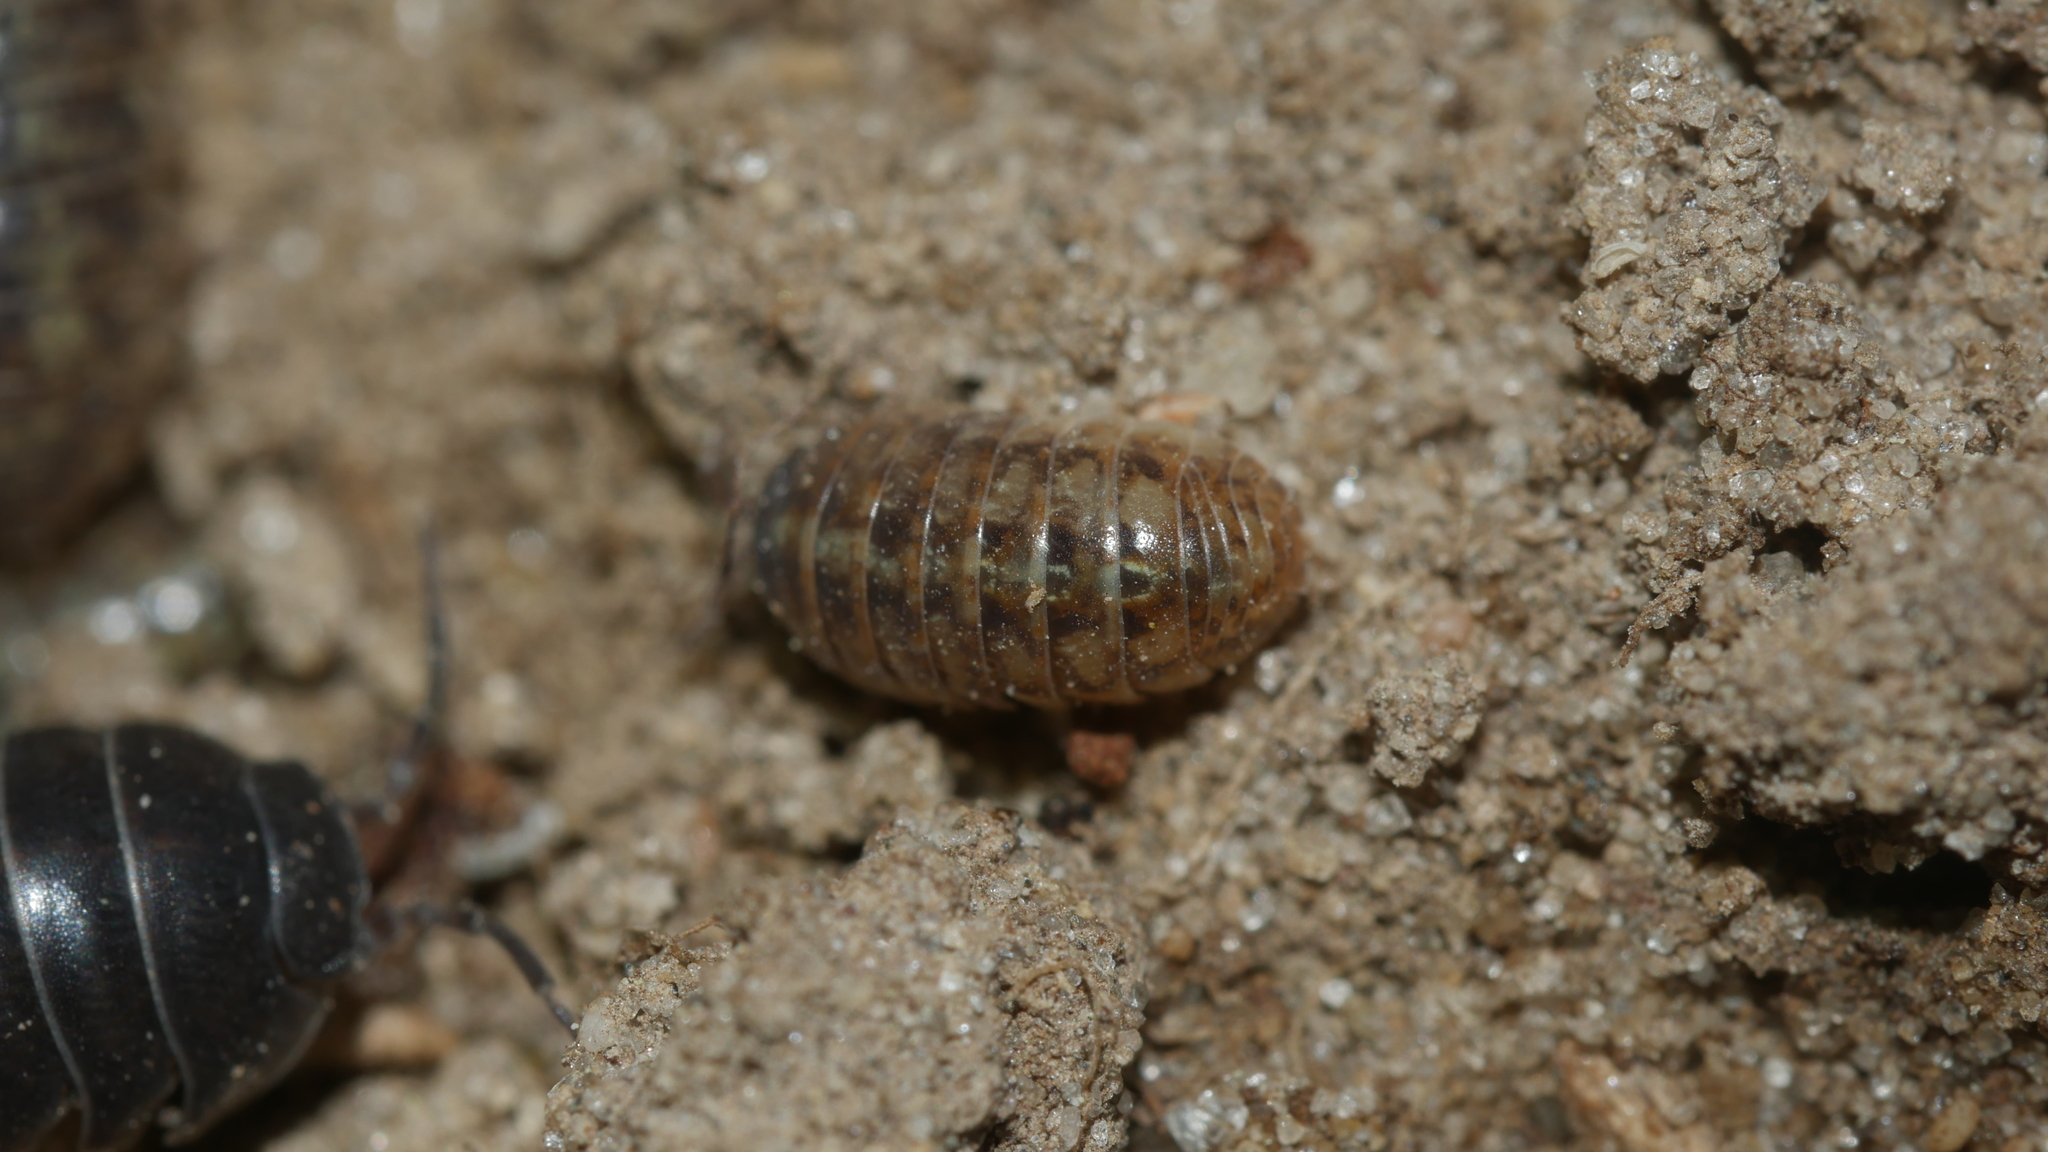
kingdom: Animalia
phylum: Arthropoda
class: Malacostraca
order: Isopoda
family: Armadillidiidae
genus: Armadillidium
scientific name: Armadillidium vulgare
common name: Common pill woodlouse
